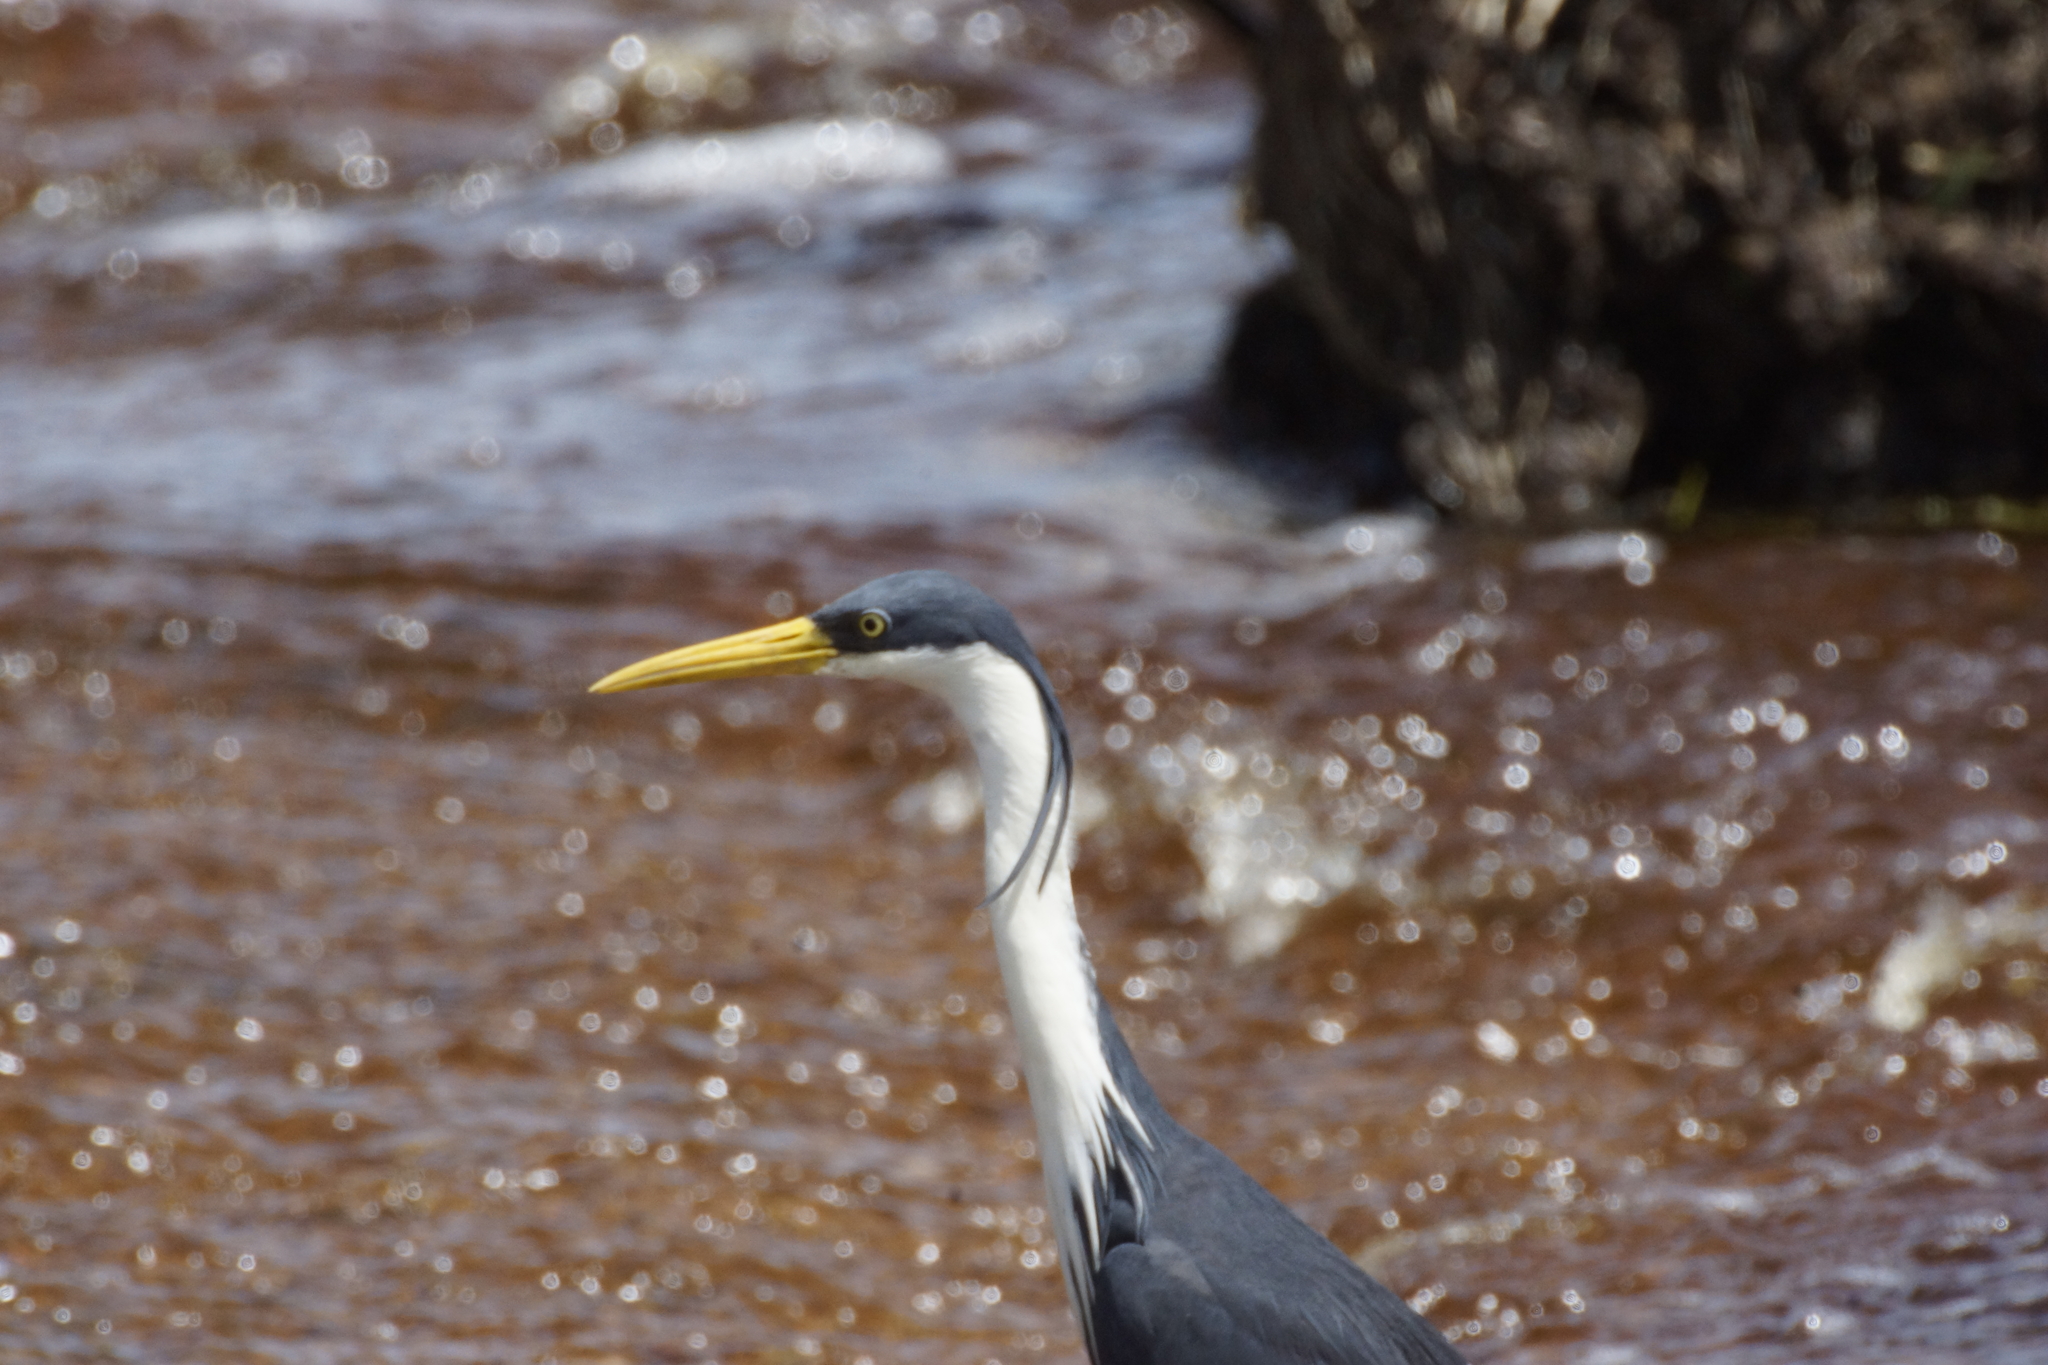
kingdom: Animalia
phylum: Chordata
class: Aves
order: Pelecaniformes
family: Ardeidae
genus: Egretta
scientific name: Egretta picata
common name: Pied heron
